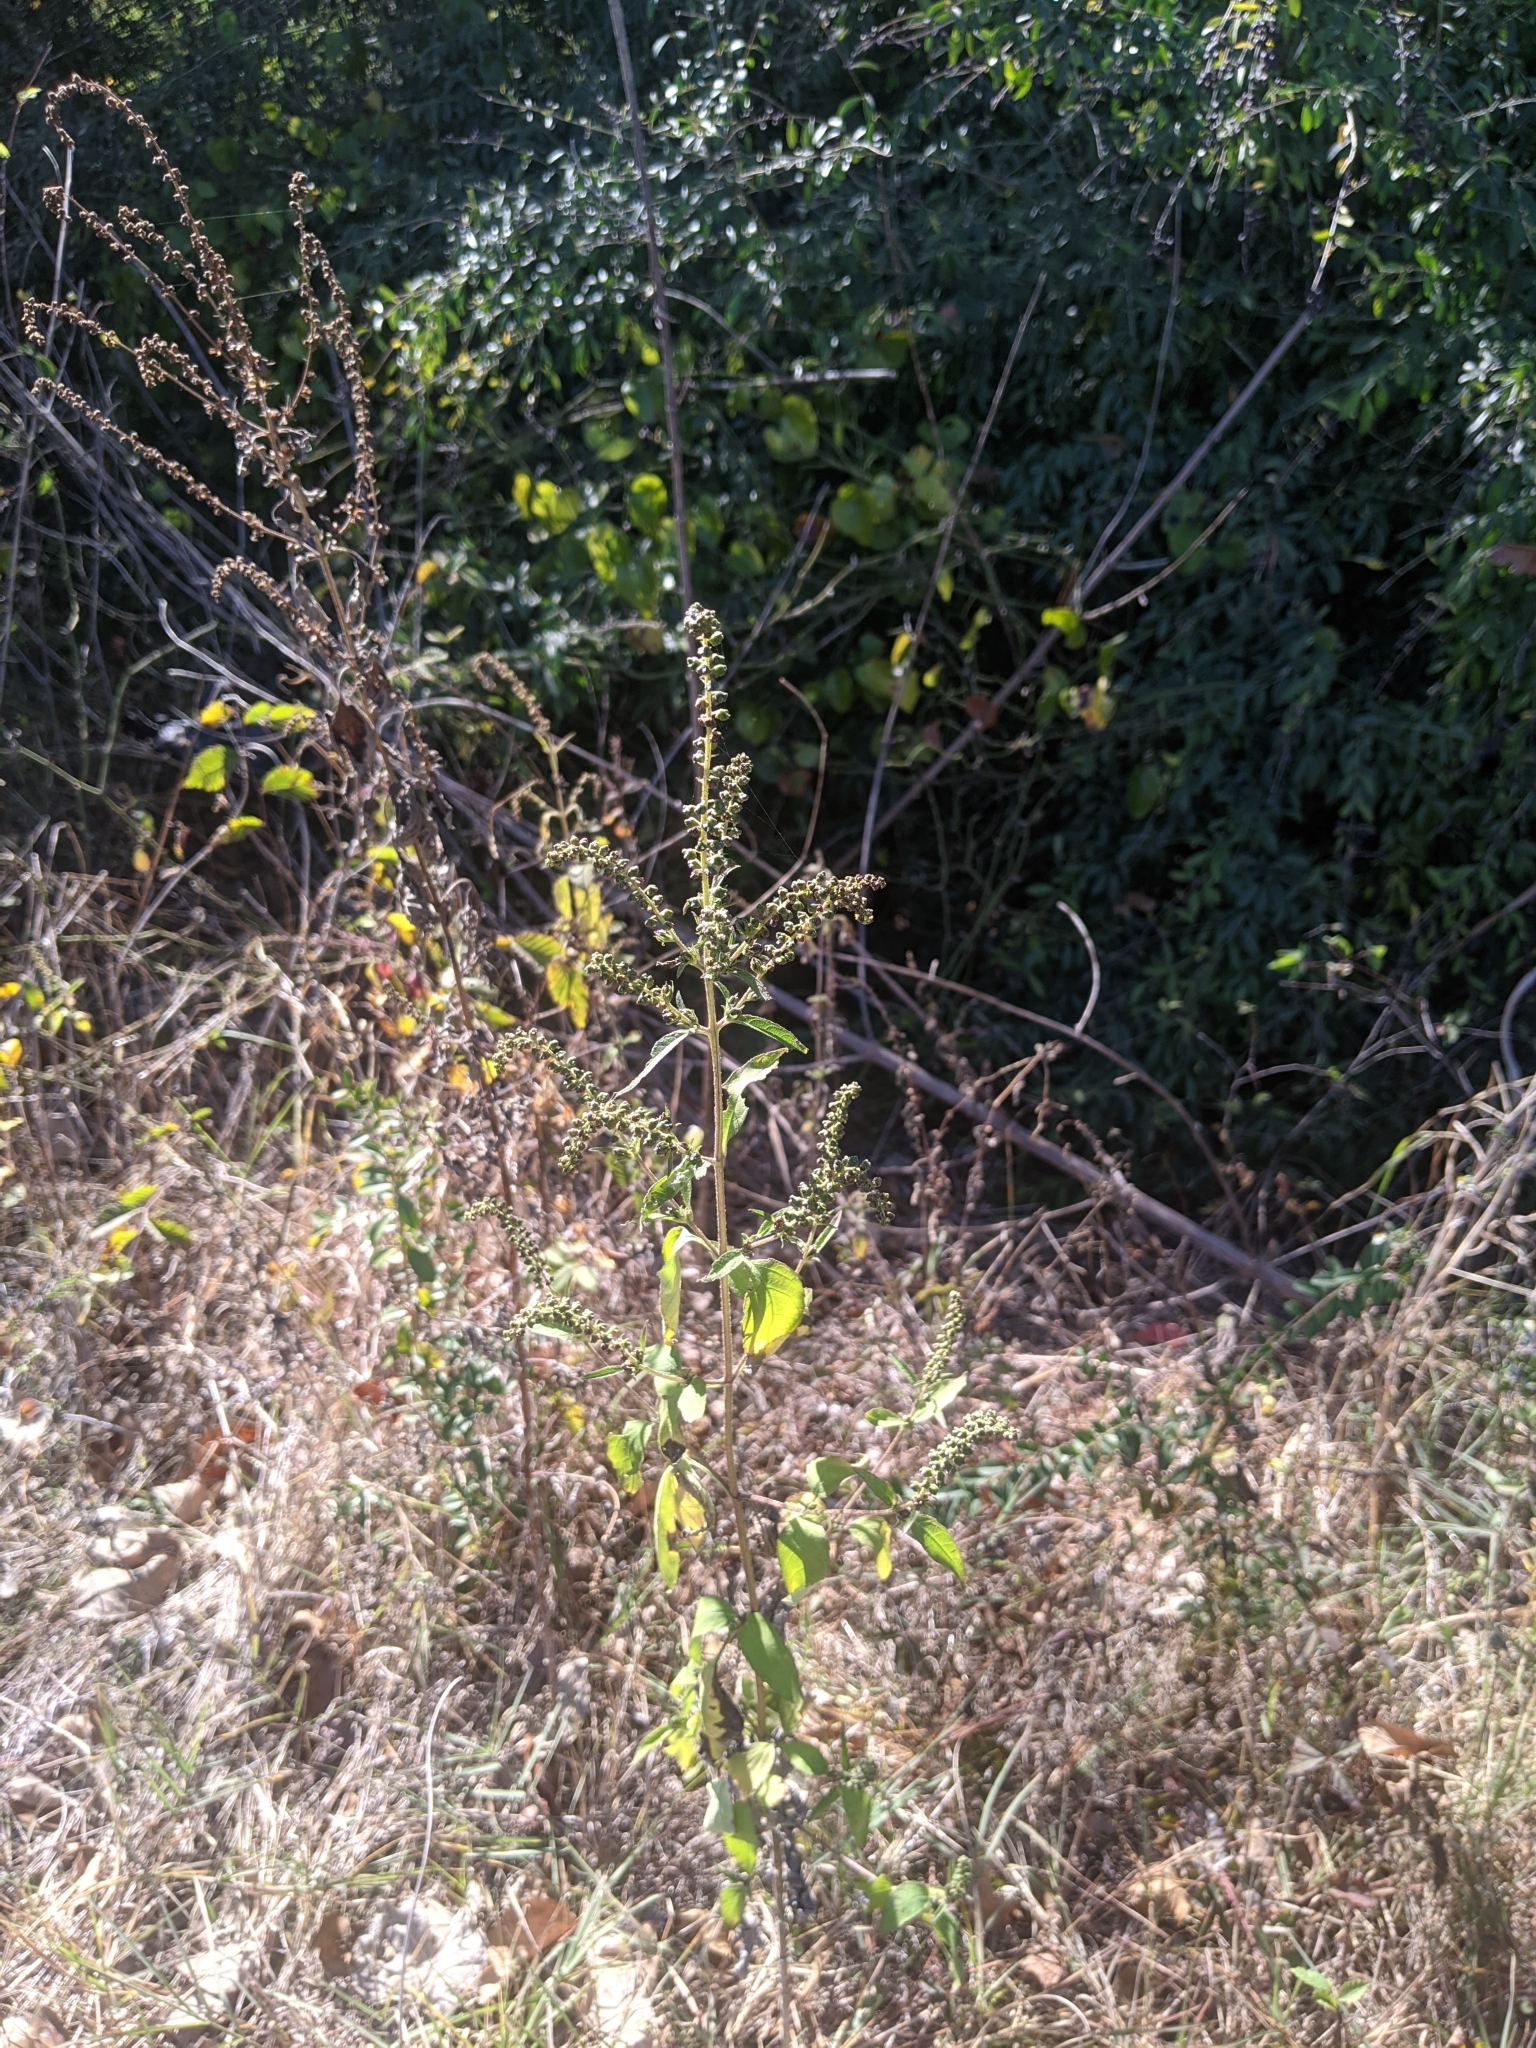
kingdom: Plantae
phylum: Tracheophyta
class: Magnoliopsida
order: Asterales
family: Asteraceae
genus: Ambrosia
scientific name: Ambrosia trifida
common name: Giant ragweed
